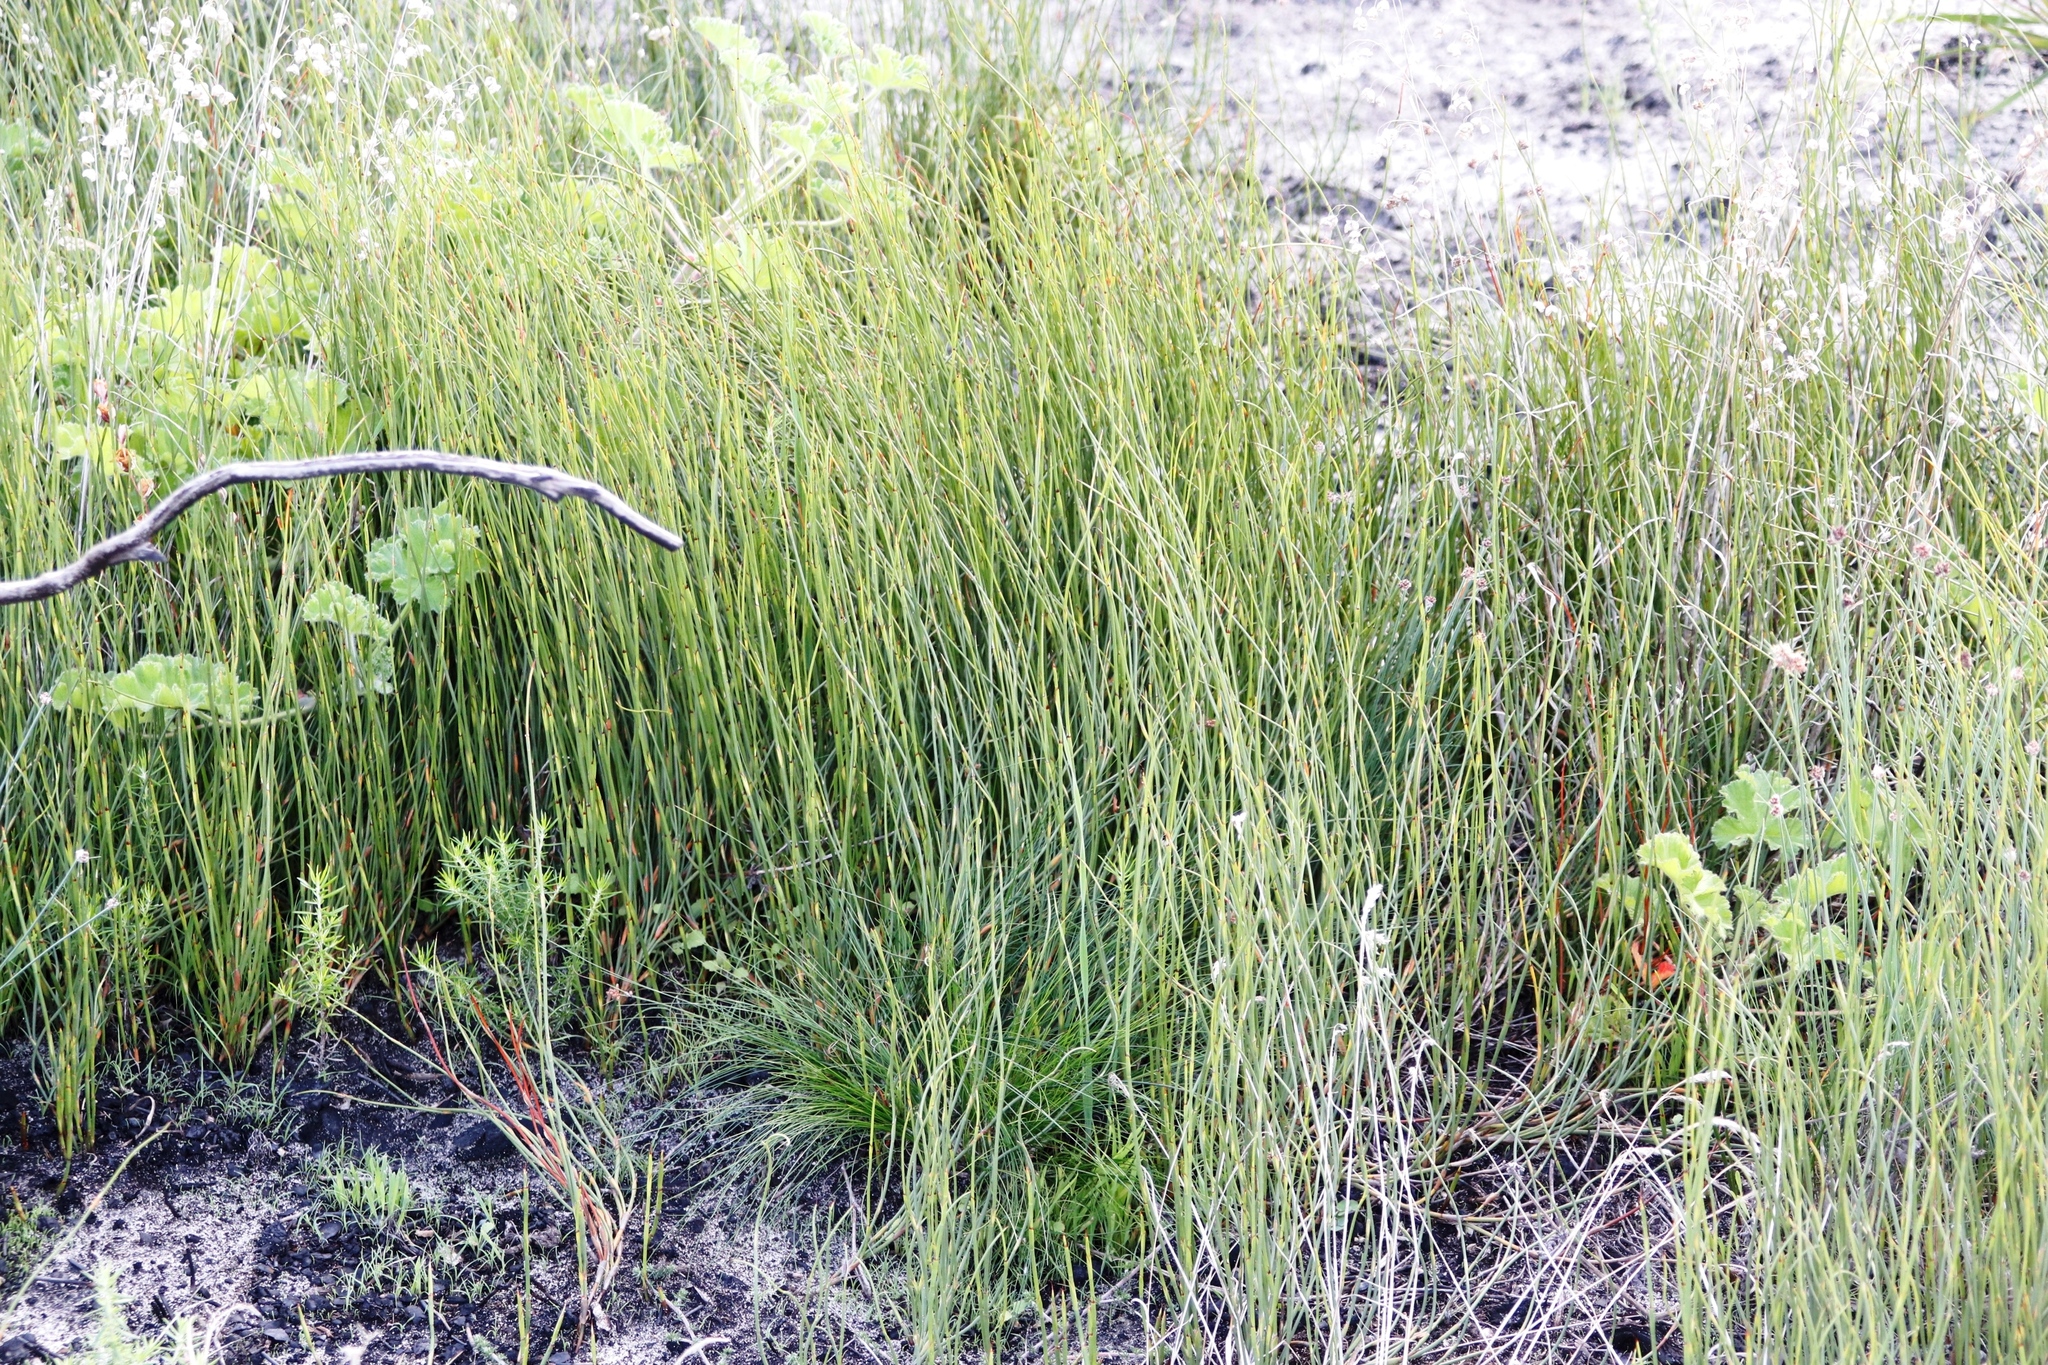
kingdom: Plantae
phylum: Tracheophyta
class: Liliopsida
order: Poales
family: Restionaceae
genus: Willdenowia
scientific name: Willdenowia sulcata
